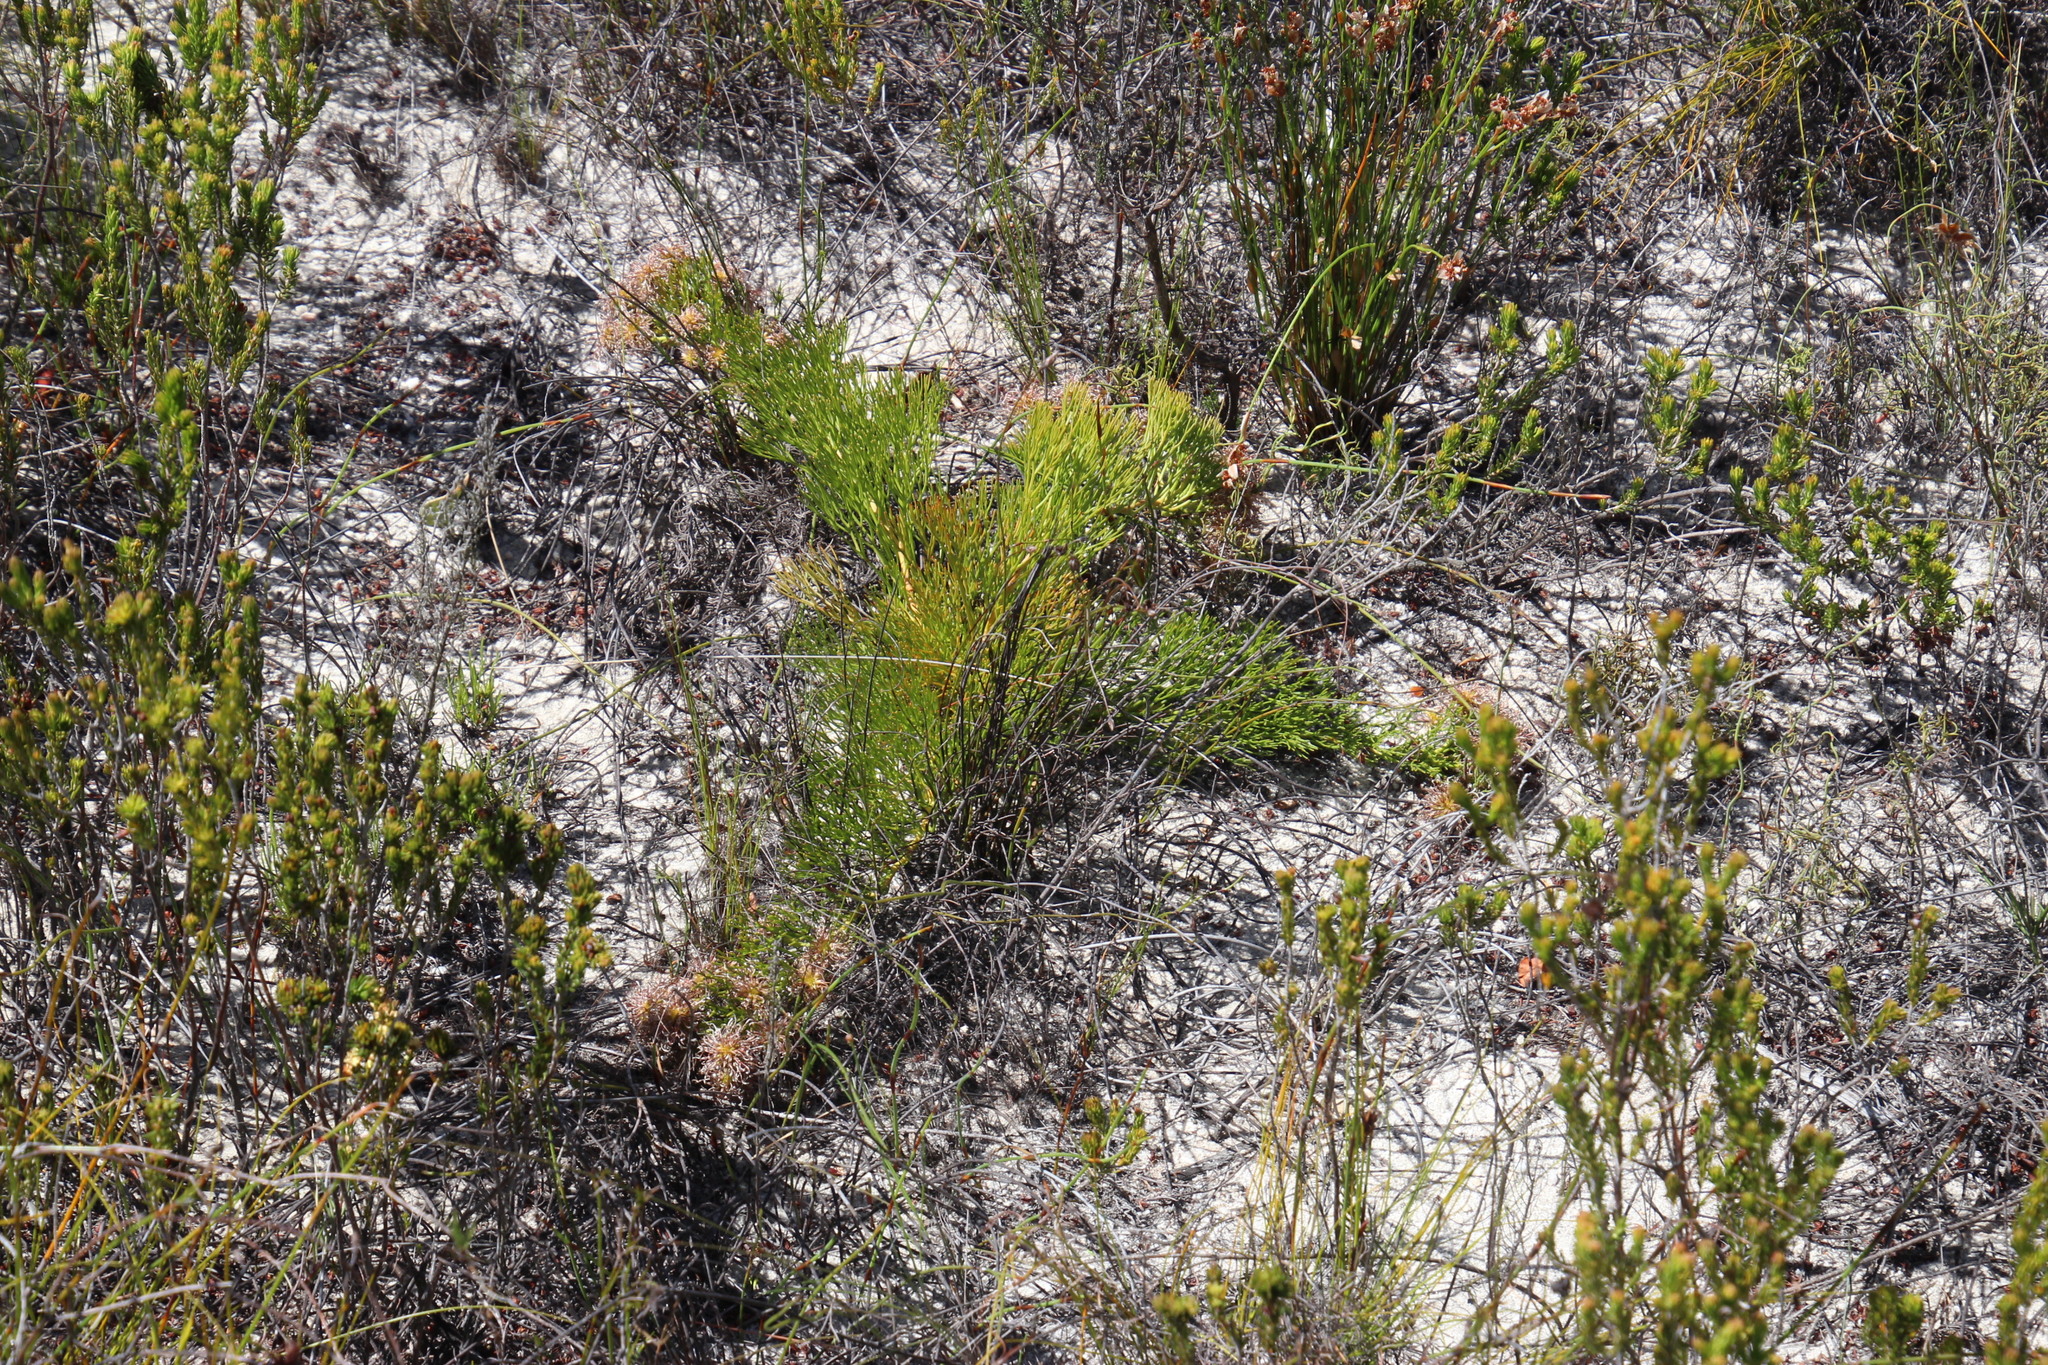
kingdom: Plantae
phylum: Tracheophyta
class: Magnoliopsida
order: Proteales
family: Proteaceae
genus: Serruria
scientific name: Serruria cygnea
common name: Swan spiderhead
